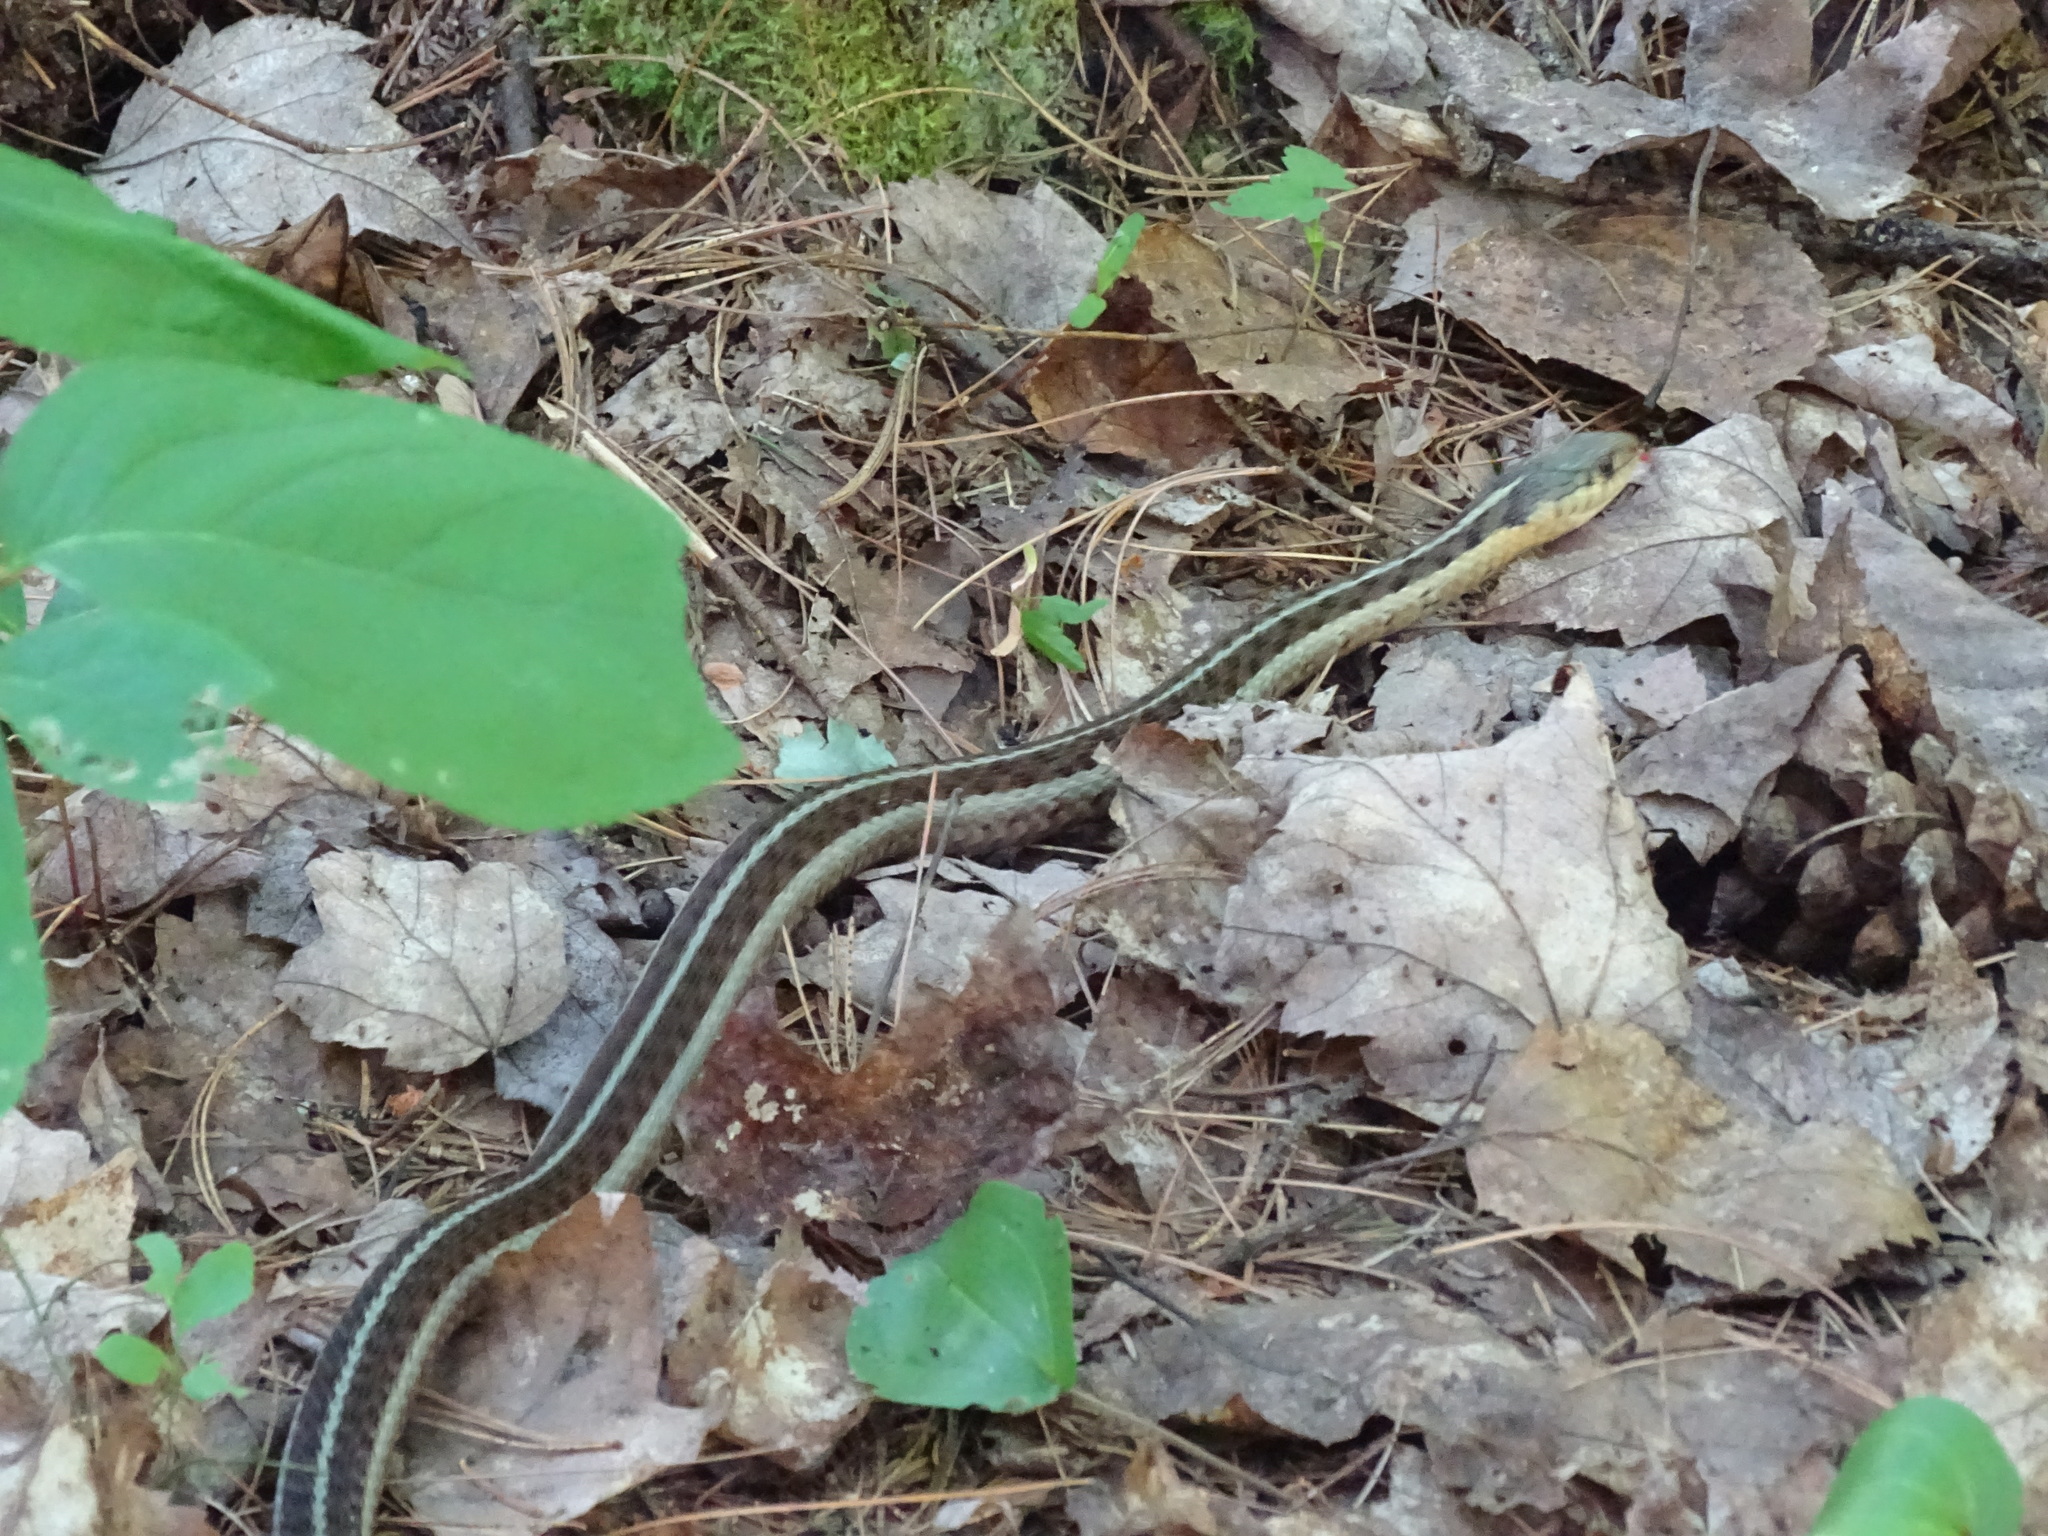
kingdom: Animalia
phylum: Chordata
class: Squamata
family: Colubridae
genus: Thamnophis
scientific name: Thamnophis sirtalis
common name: Common garter snake
